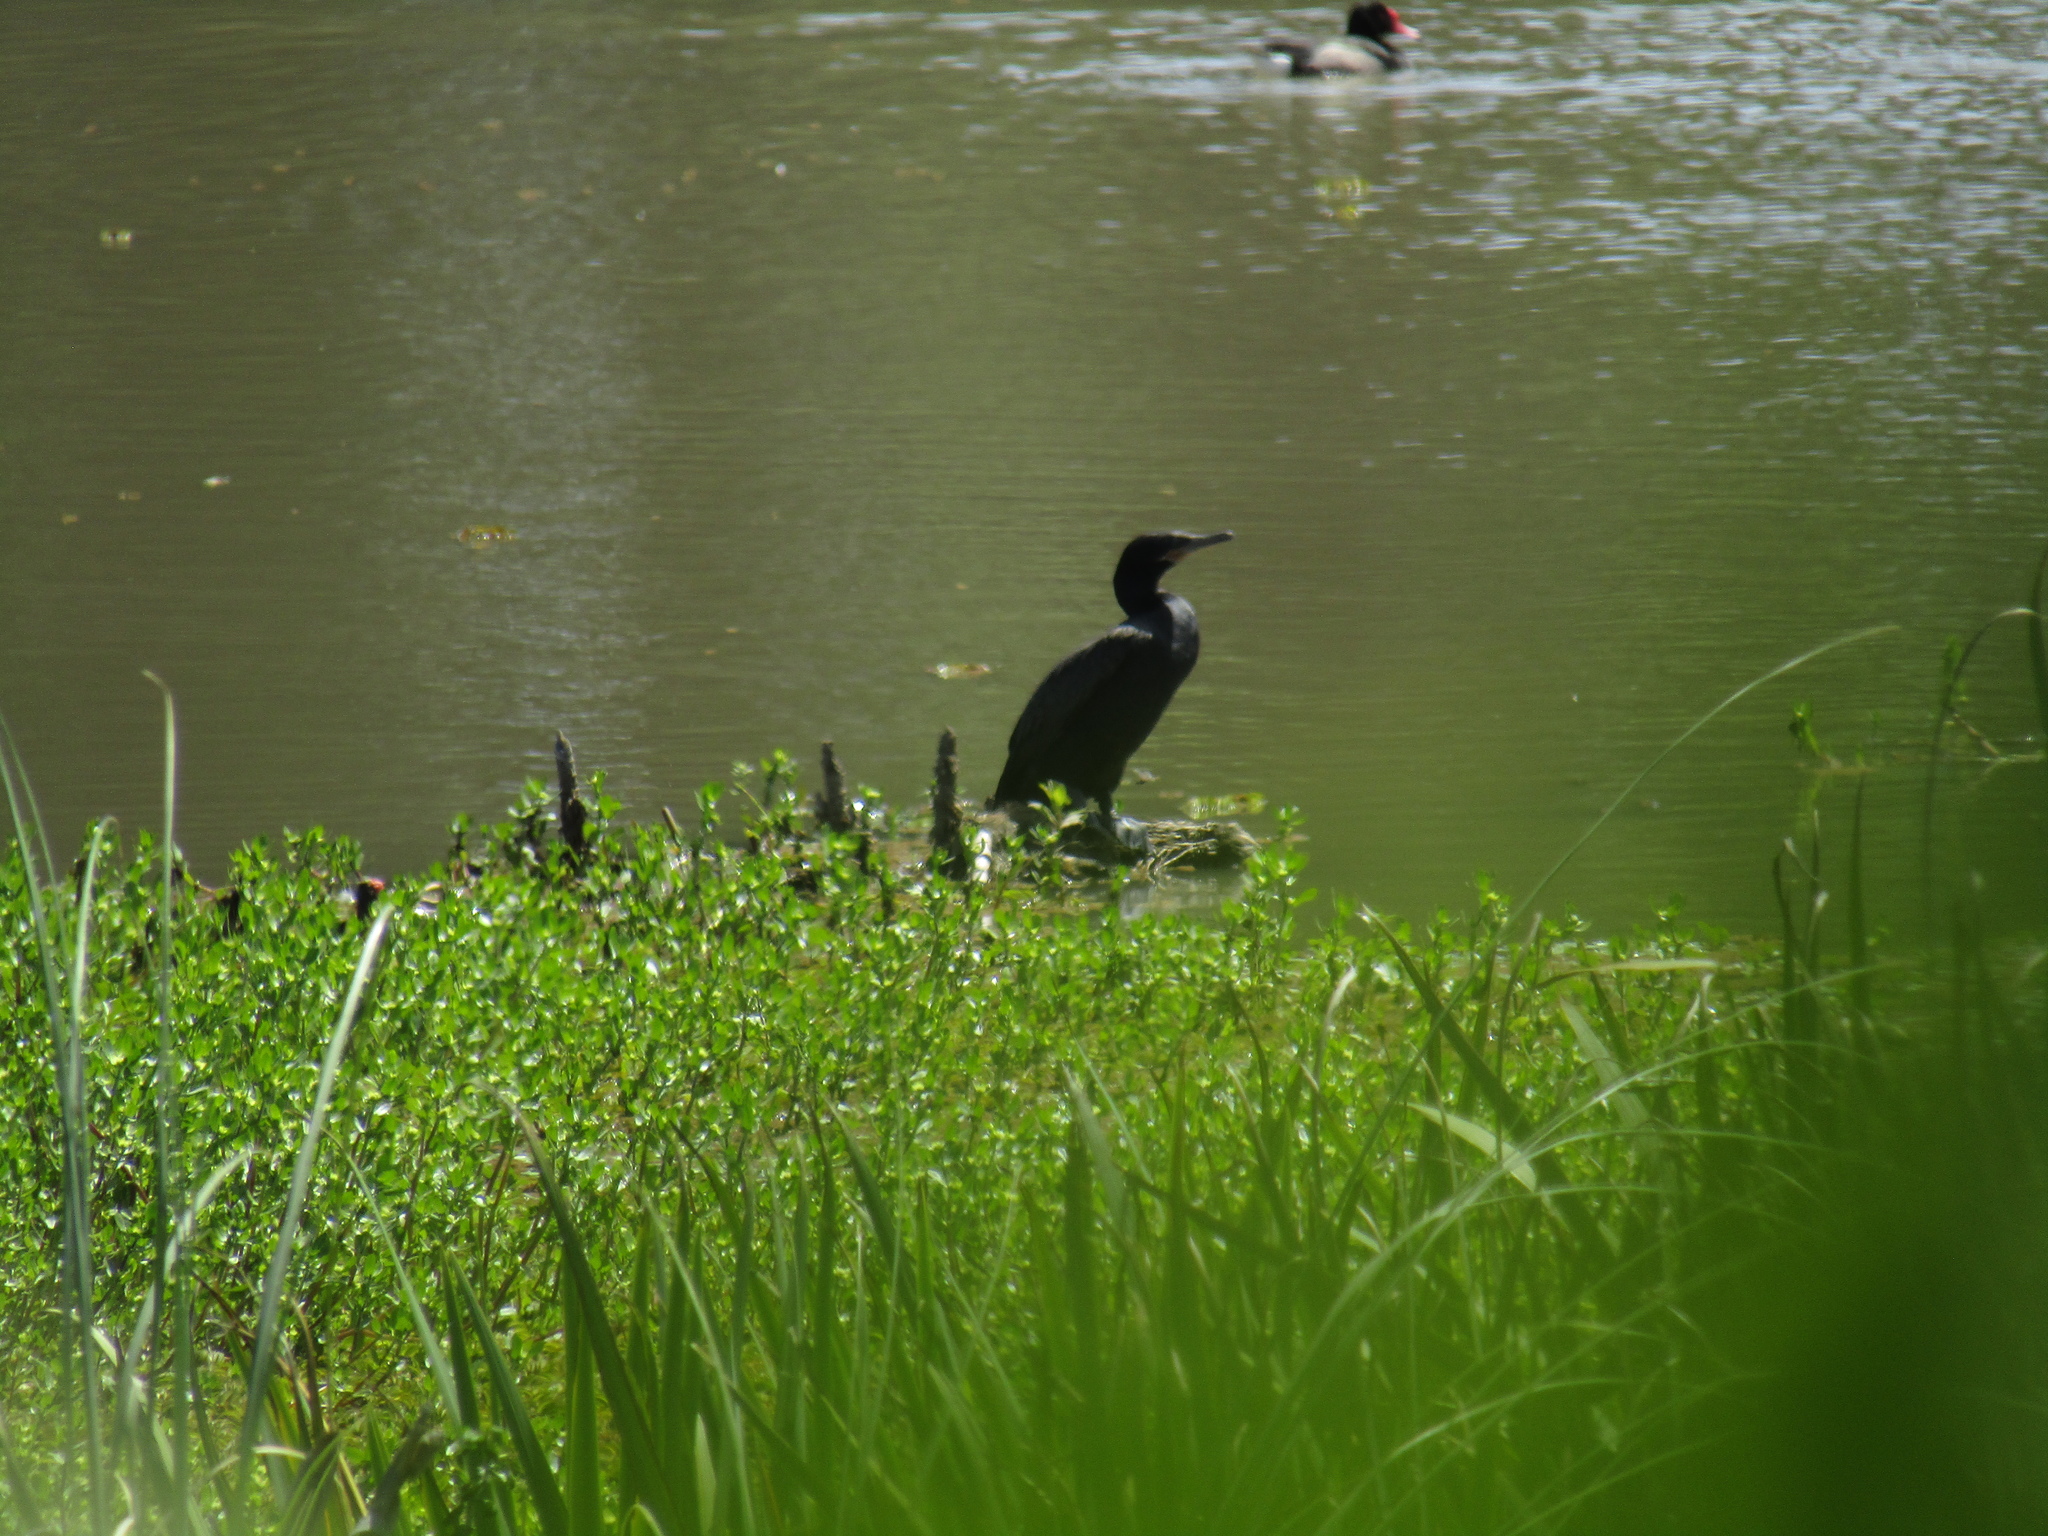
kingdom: Animalia
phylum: Chordata
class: Aves
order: Suliformes
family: Phalacrocoracidae
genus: Phalacrocorax
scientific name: Phalacrocorax brasilianus
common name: Neotropic cormorant
